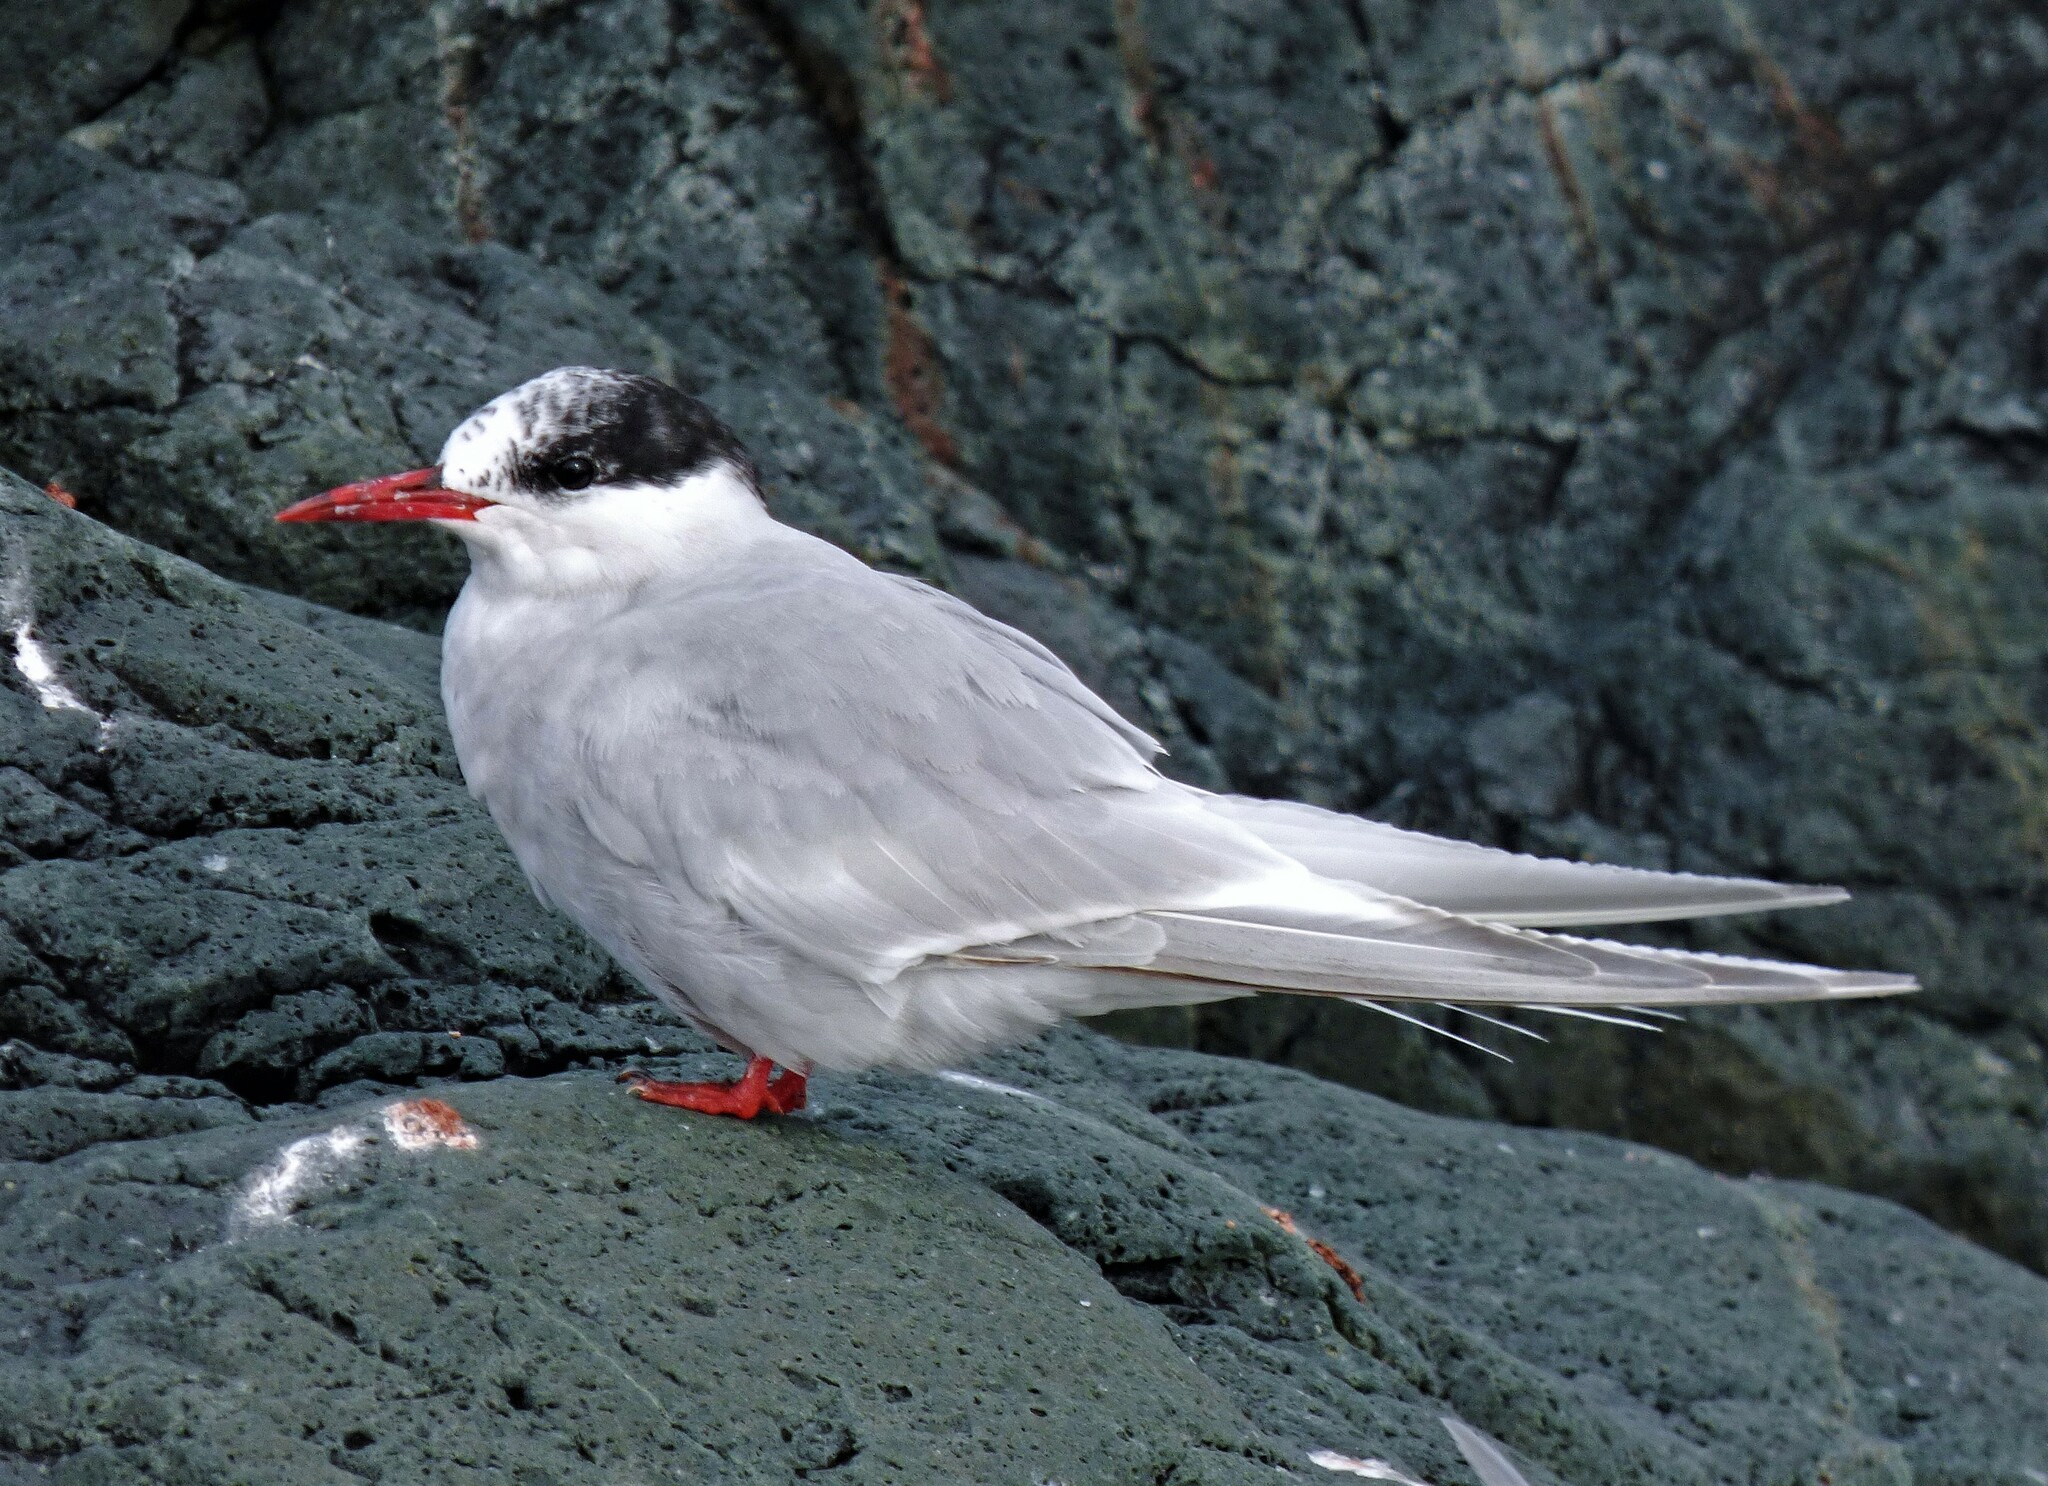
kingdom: Animalia
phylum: Chordata
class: Aves
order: Charadriiformes
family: Laridae
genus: Sterna
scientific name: Sterna vittata
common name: Antarctic tern
